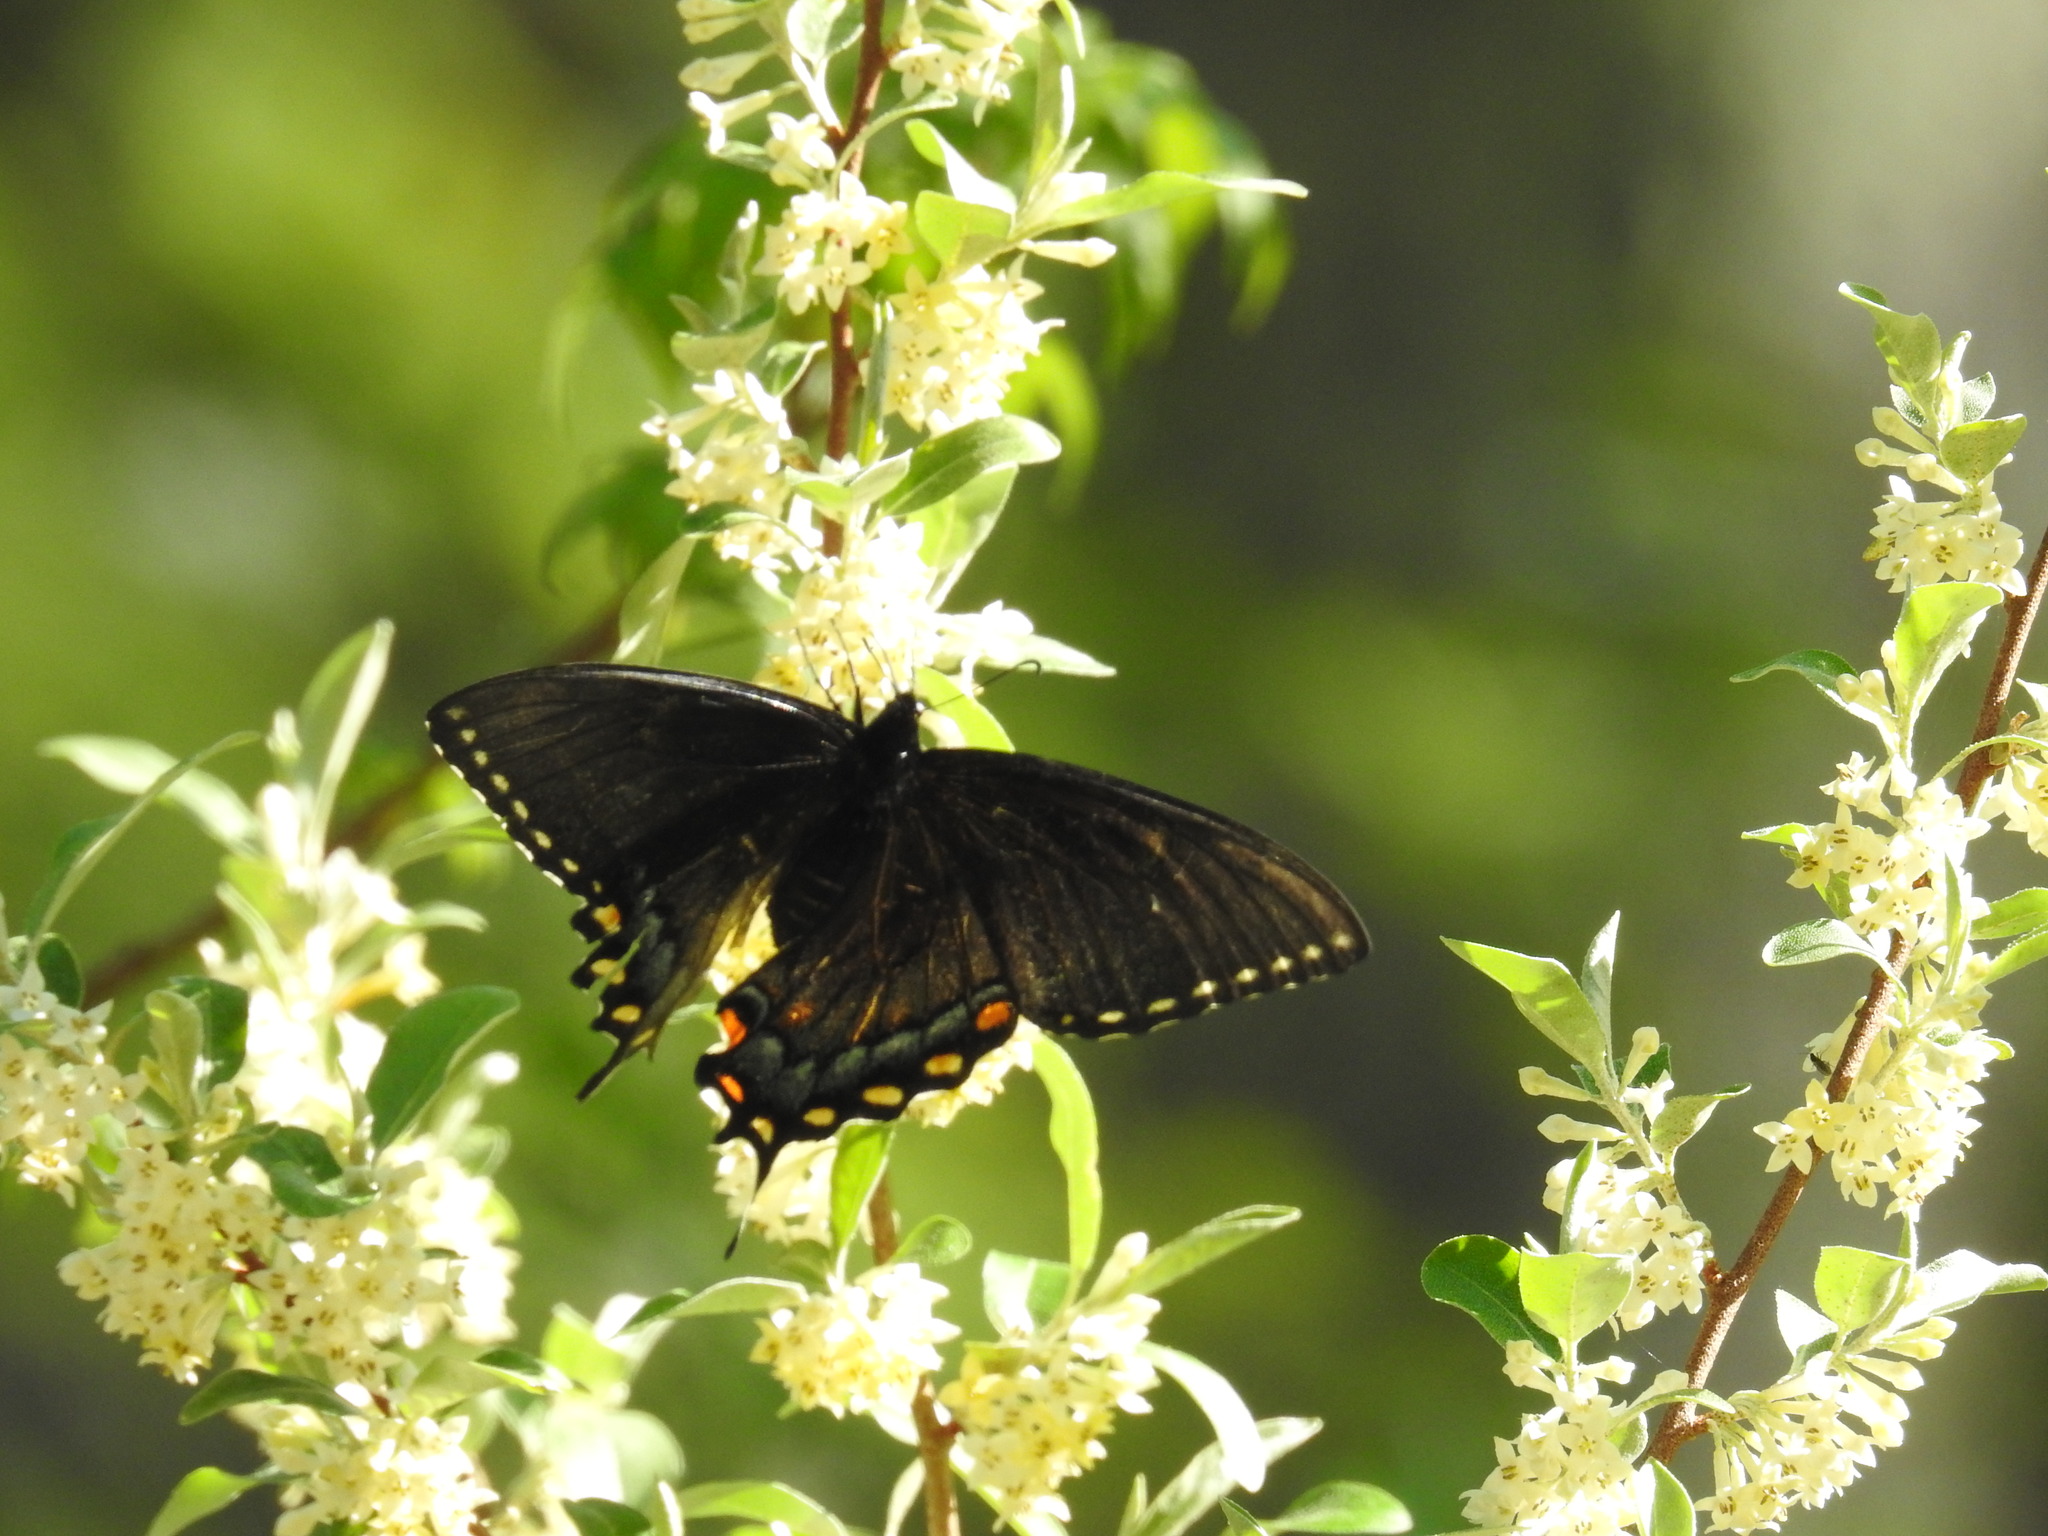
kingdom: Animalia
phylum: Arthropoda
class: Insecta
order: Lepidoptera
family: Papilionidae
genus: Papilio
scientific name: Papilio glaucus
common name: Tiger swallowtail
